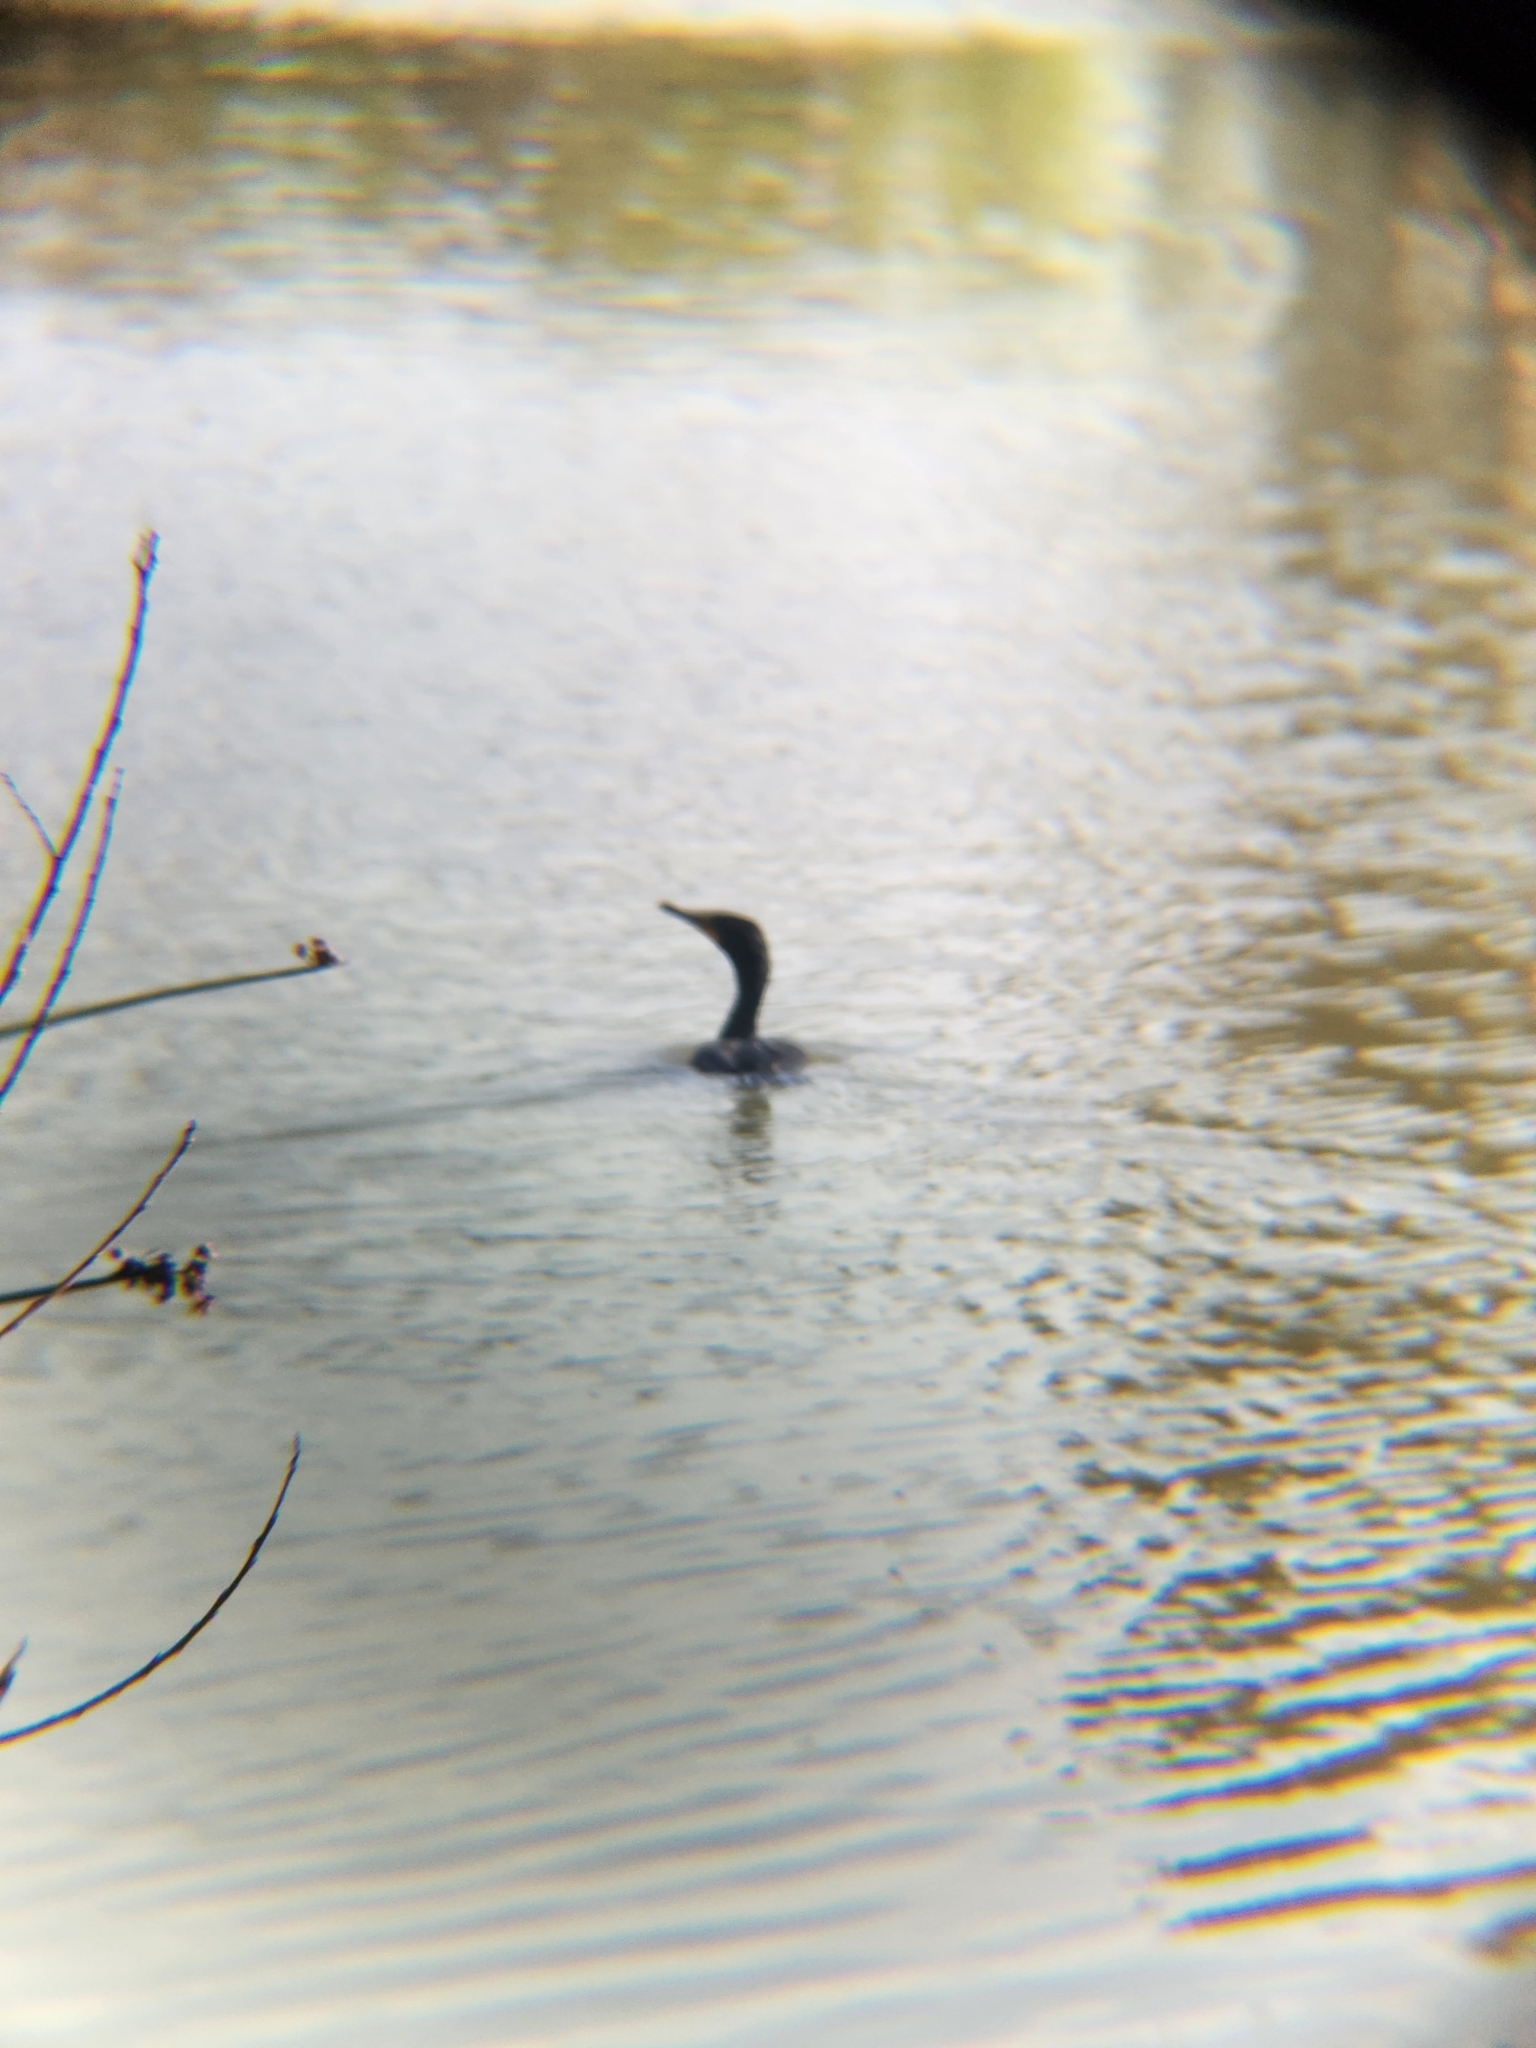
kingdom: Animalia
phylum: Chordata
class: Aves
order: Suliformes
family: Phalacrocoracidae
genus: Phalacrocorax
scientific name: Phalacrocorax auritus
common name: Double-crested cormorant
